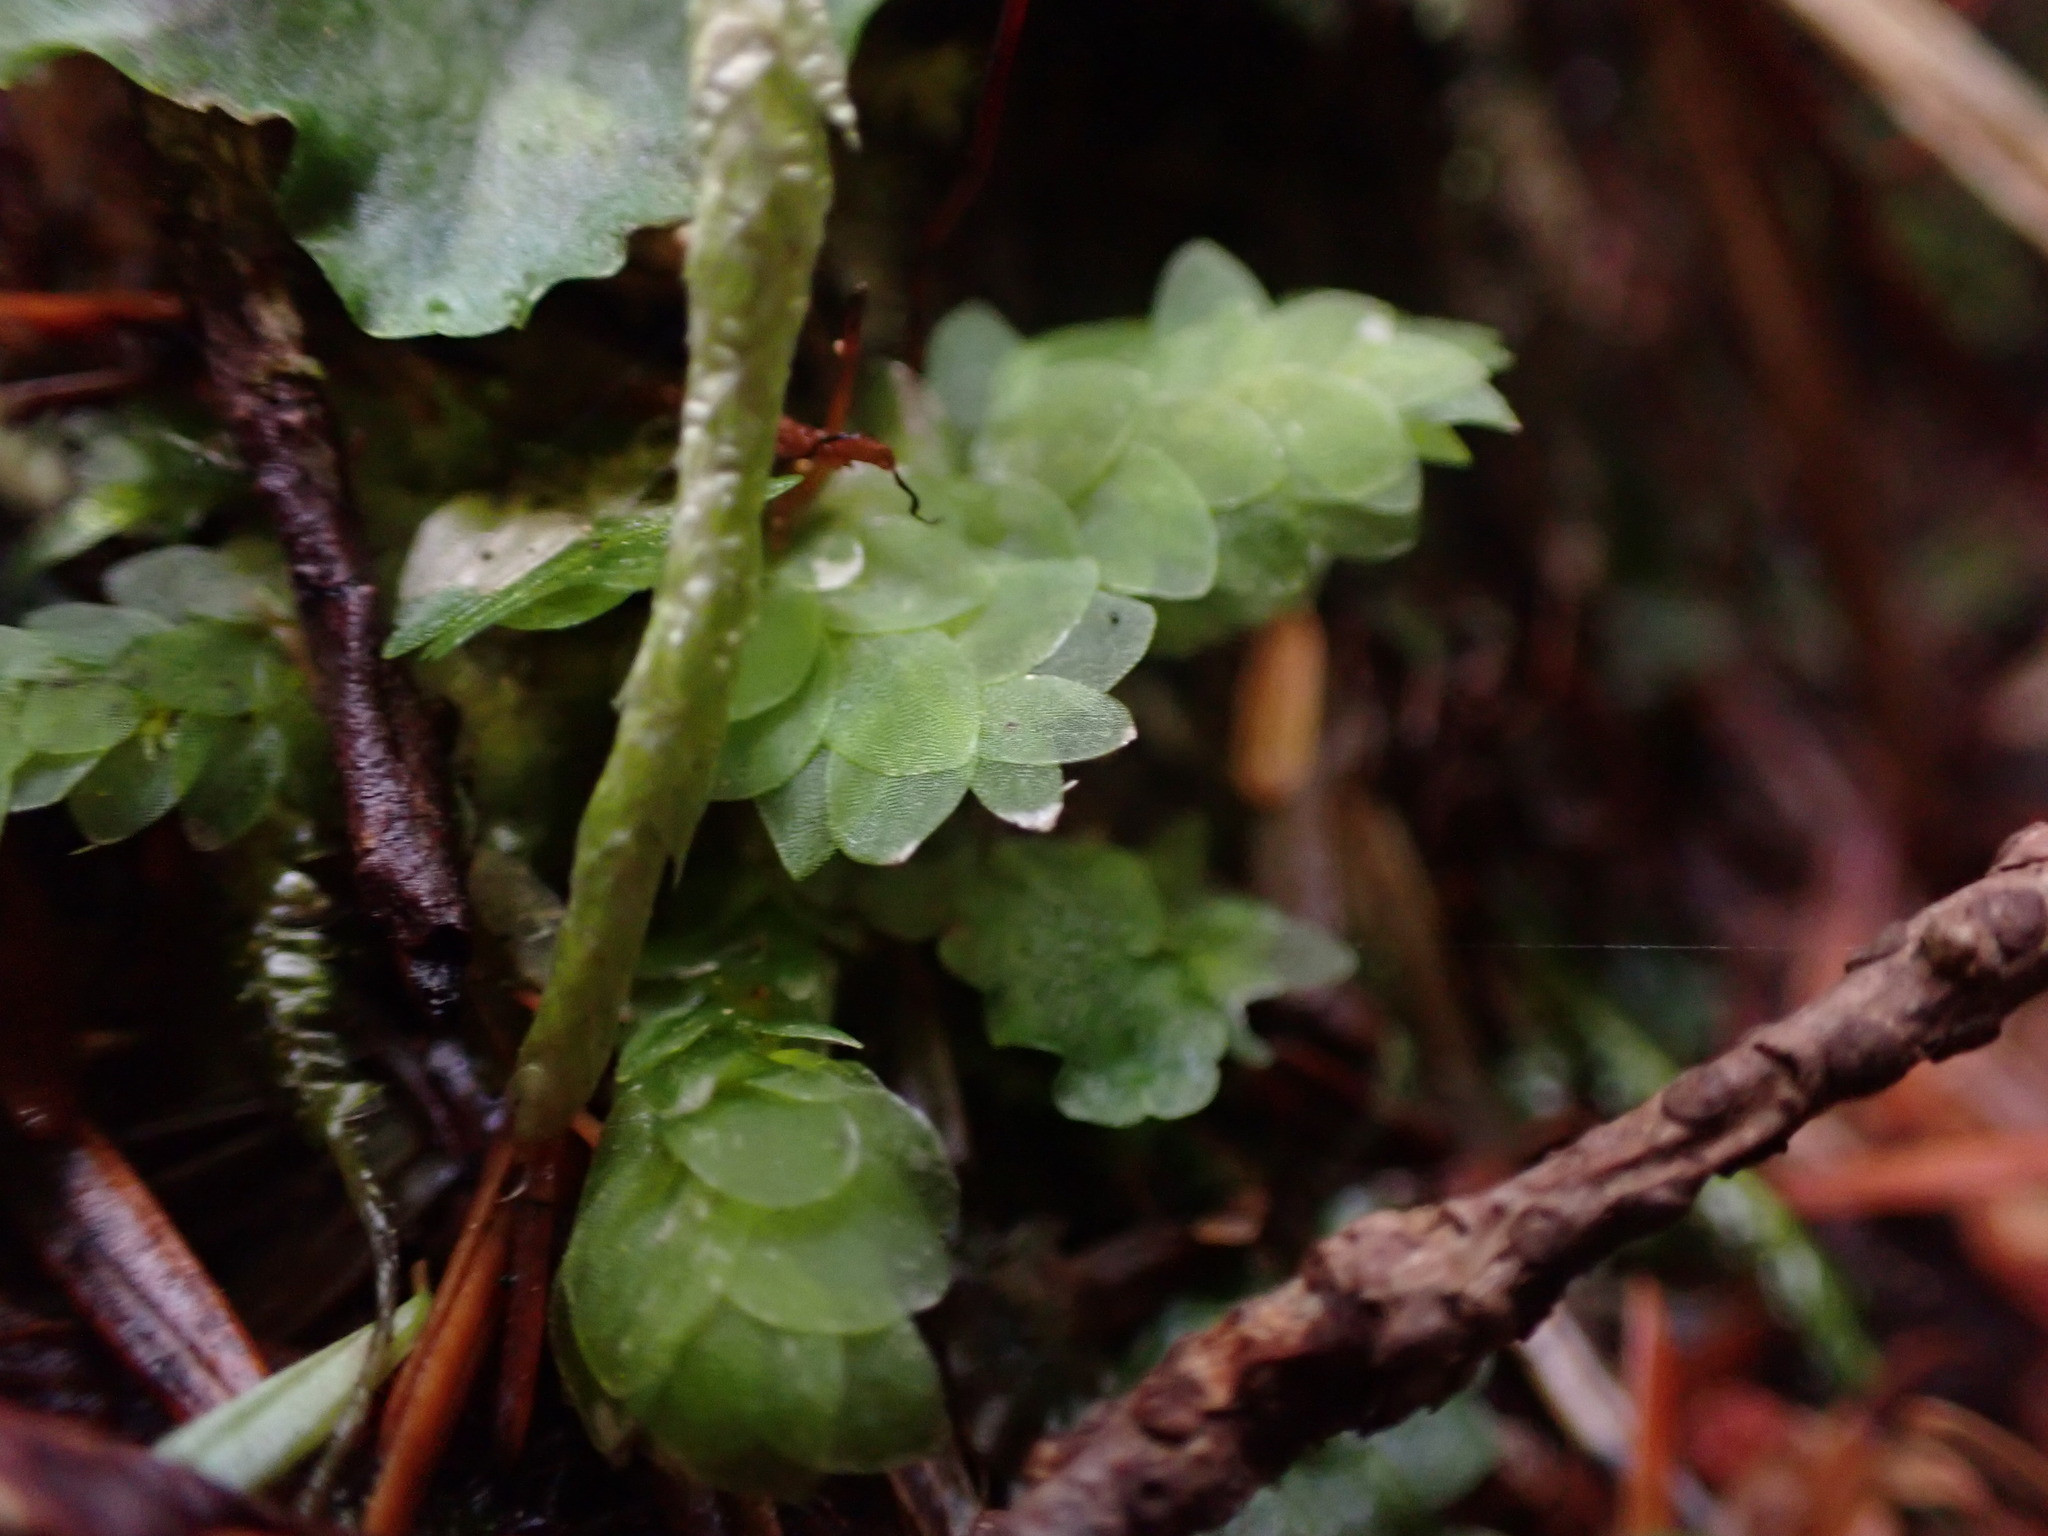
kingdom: Plantae
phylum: Bryophyta
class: Bryopsida
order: Hookeriales
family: Hookeriaceae
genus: Hookeria
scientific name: Hookeria lucens
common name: Shining hookeria
